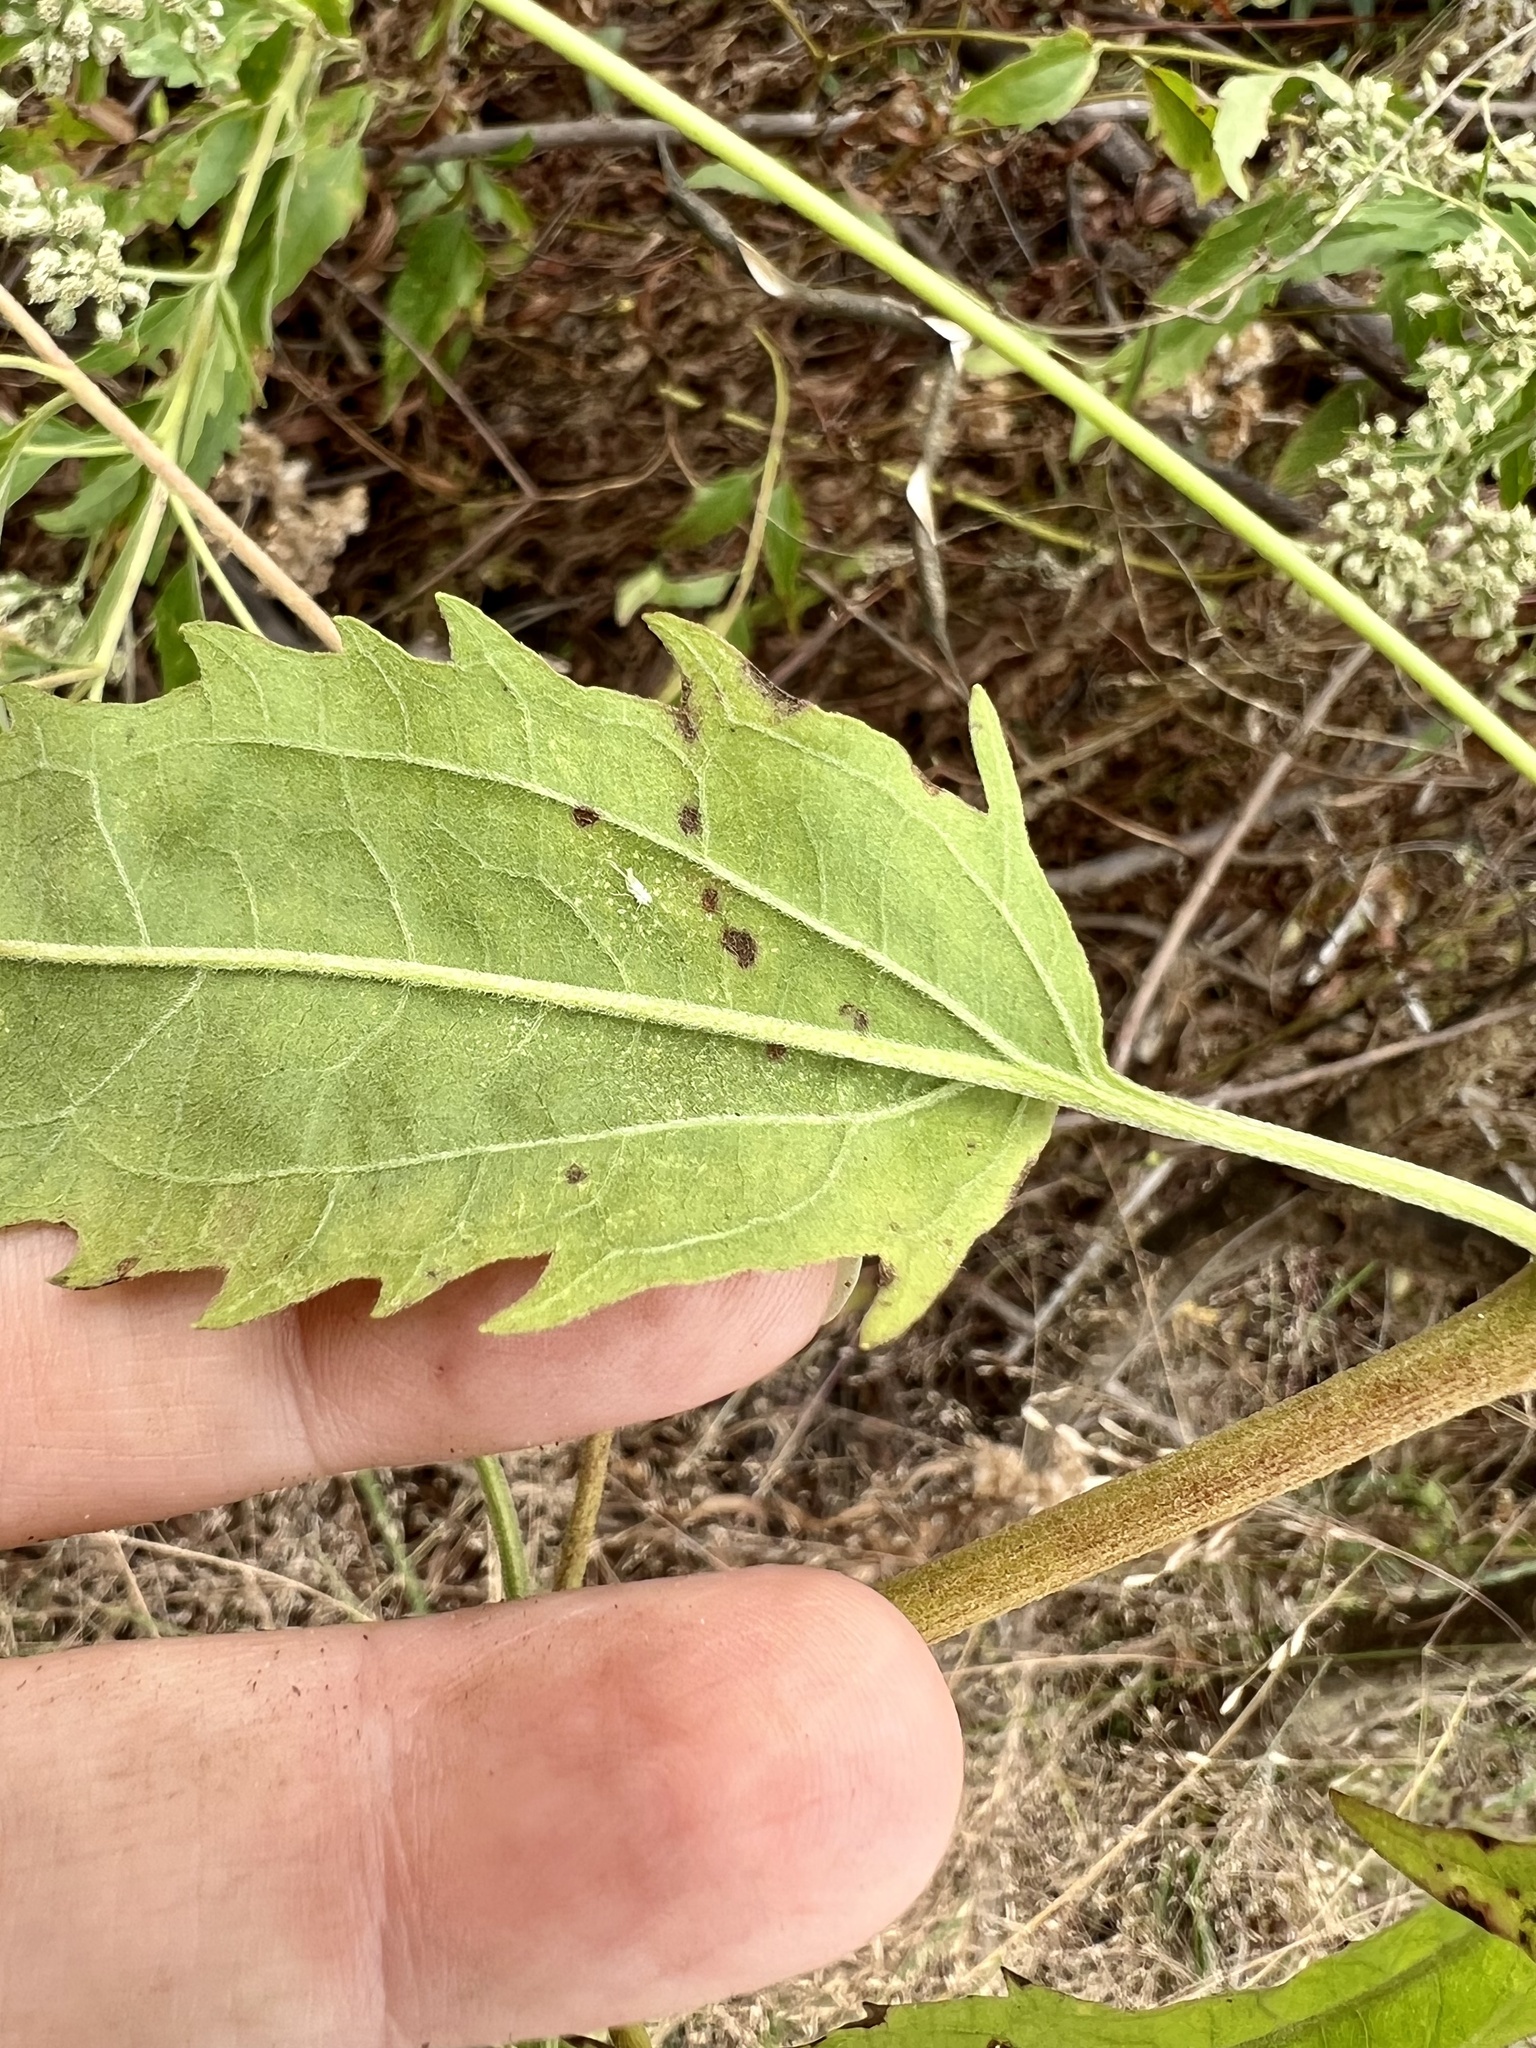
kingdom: Plantae
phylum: Tracheophyta
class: Magnoliopsida
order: Asterales
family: Asteraceae
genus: Eupatorium
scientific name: Eupatorium serotinum
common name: Late boneset
